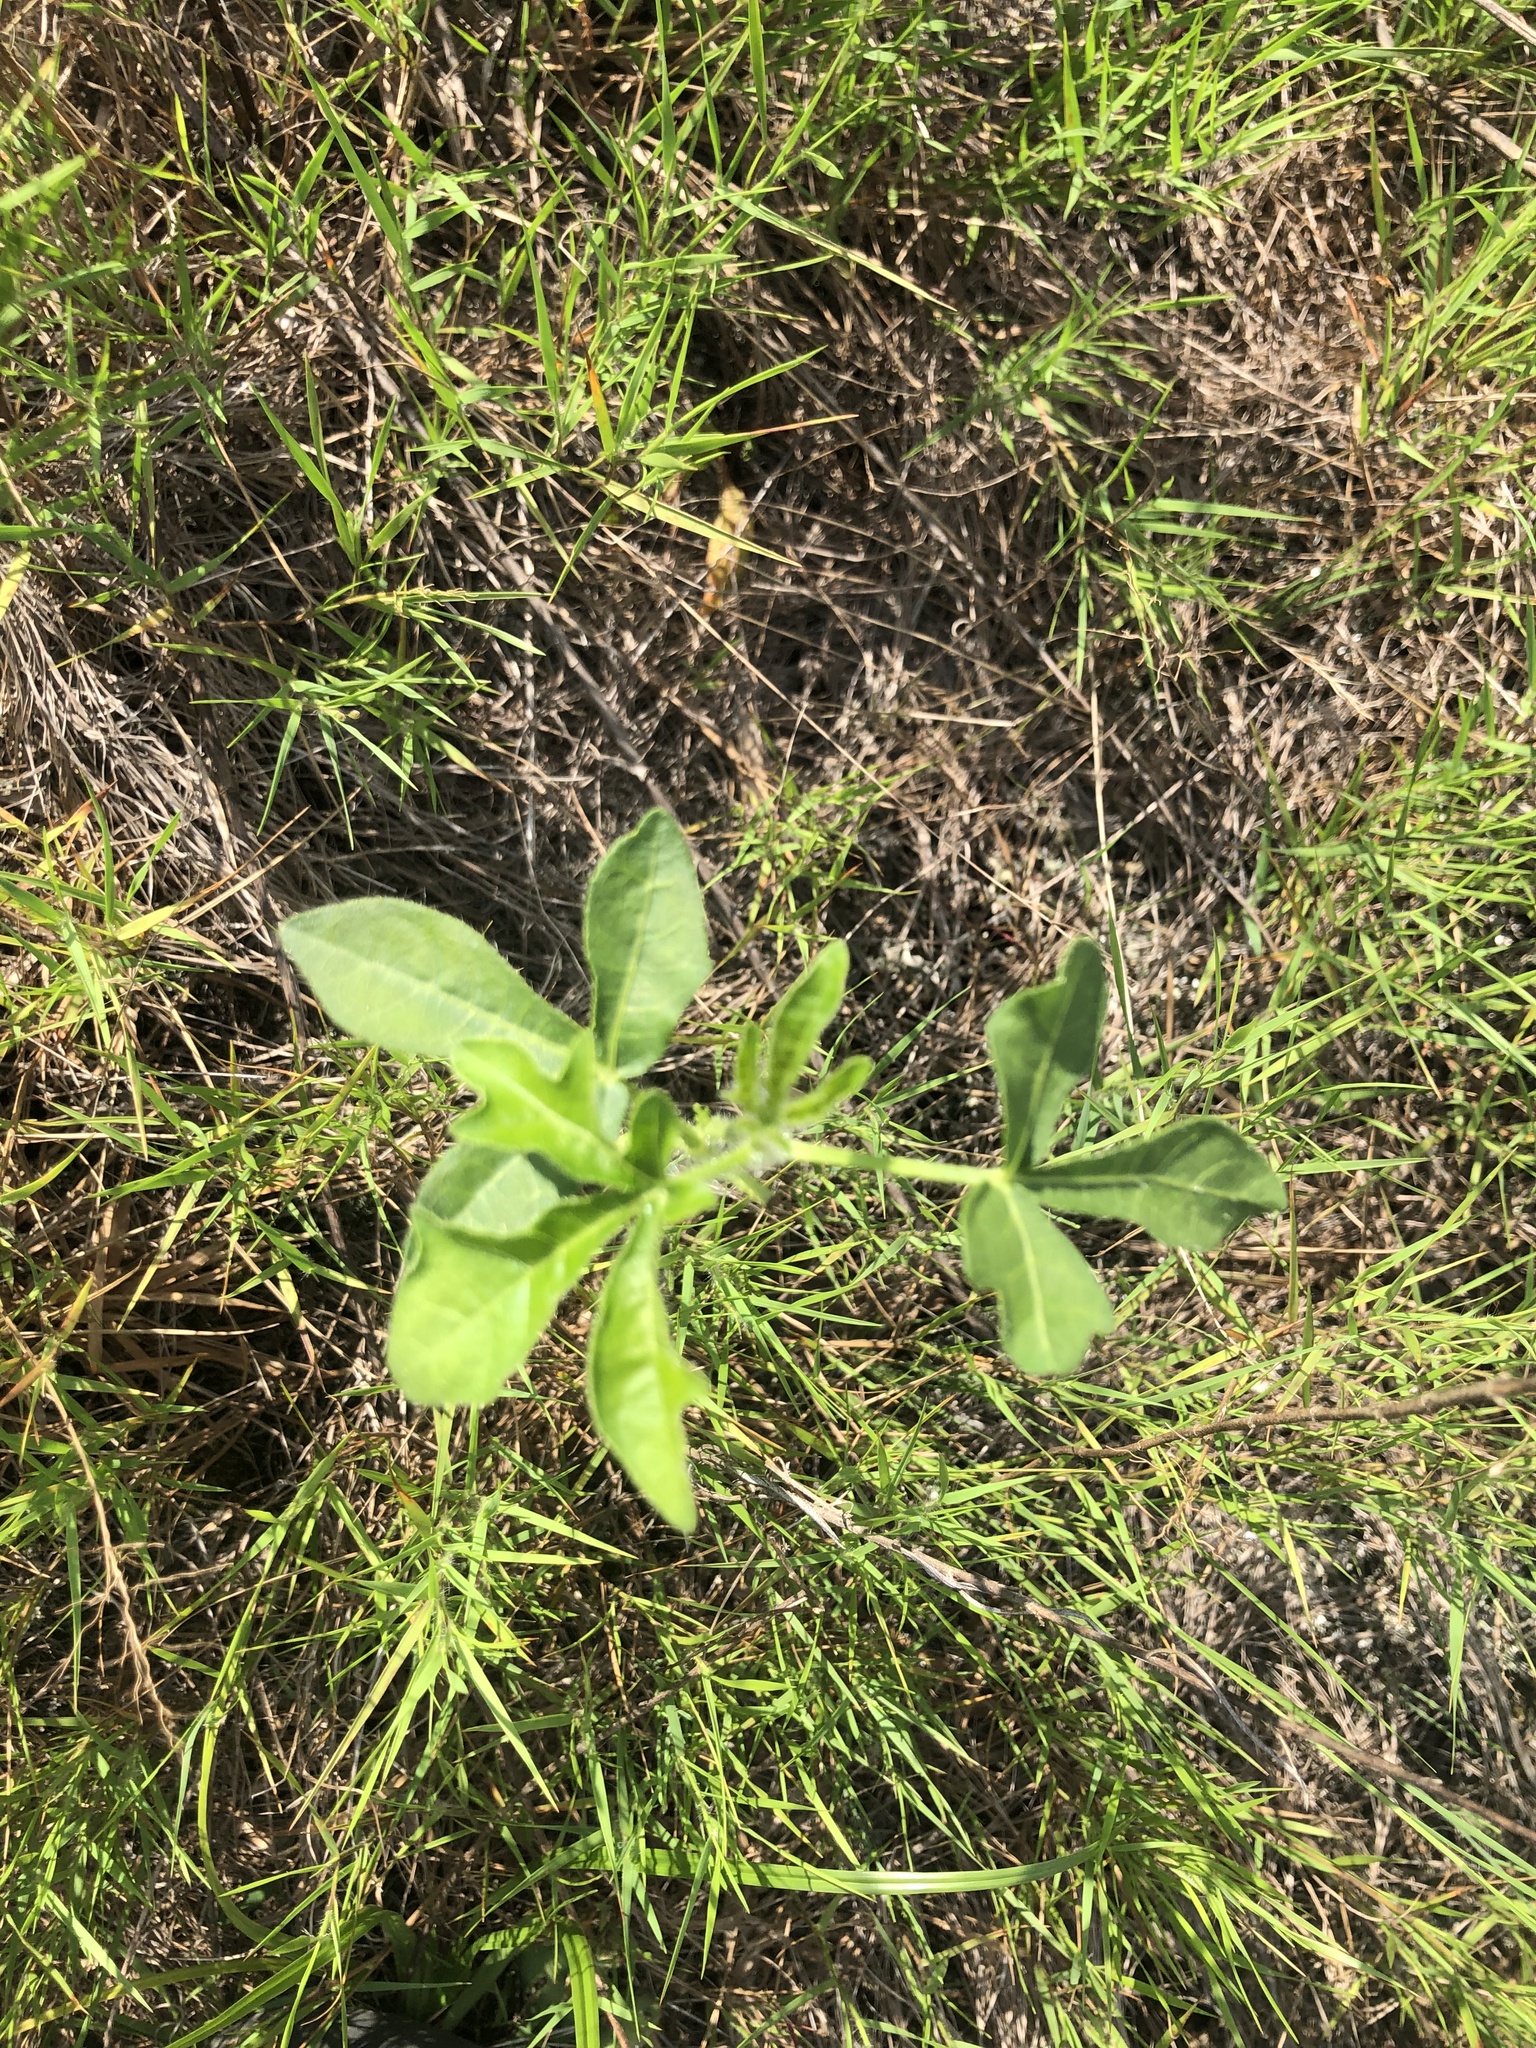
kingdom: Plantae
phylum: Tracheophyta
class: Magnoliopsida
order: Malpighiales
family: Euphorbiaceae
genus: Cnidoscolus
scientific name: Cnidoscolus stimulosus
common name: Bull-nettle
